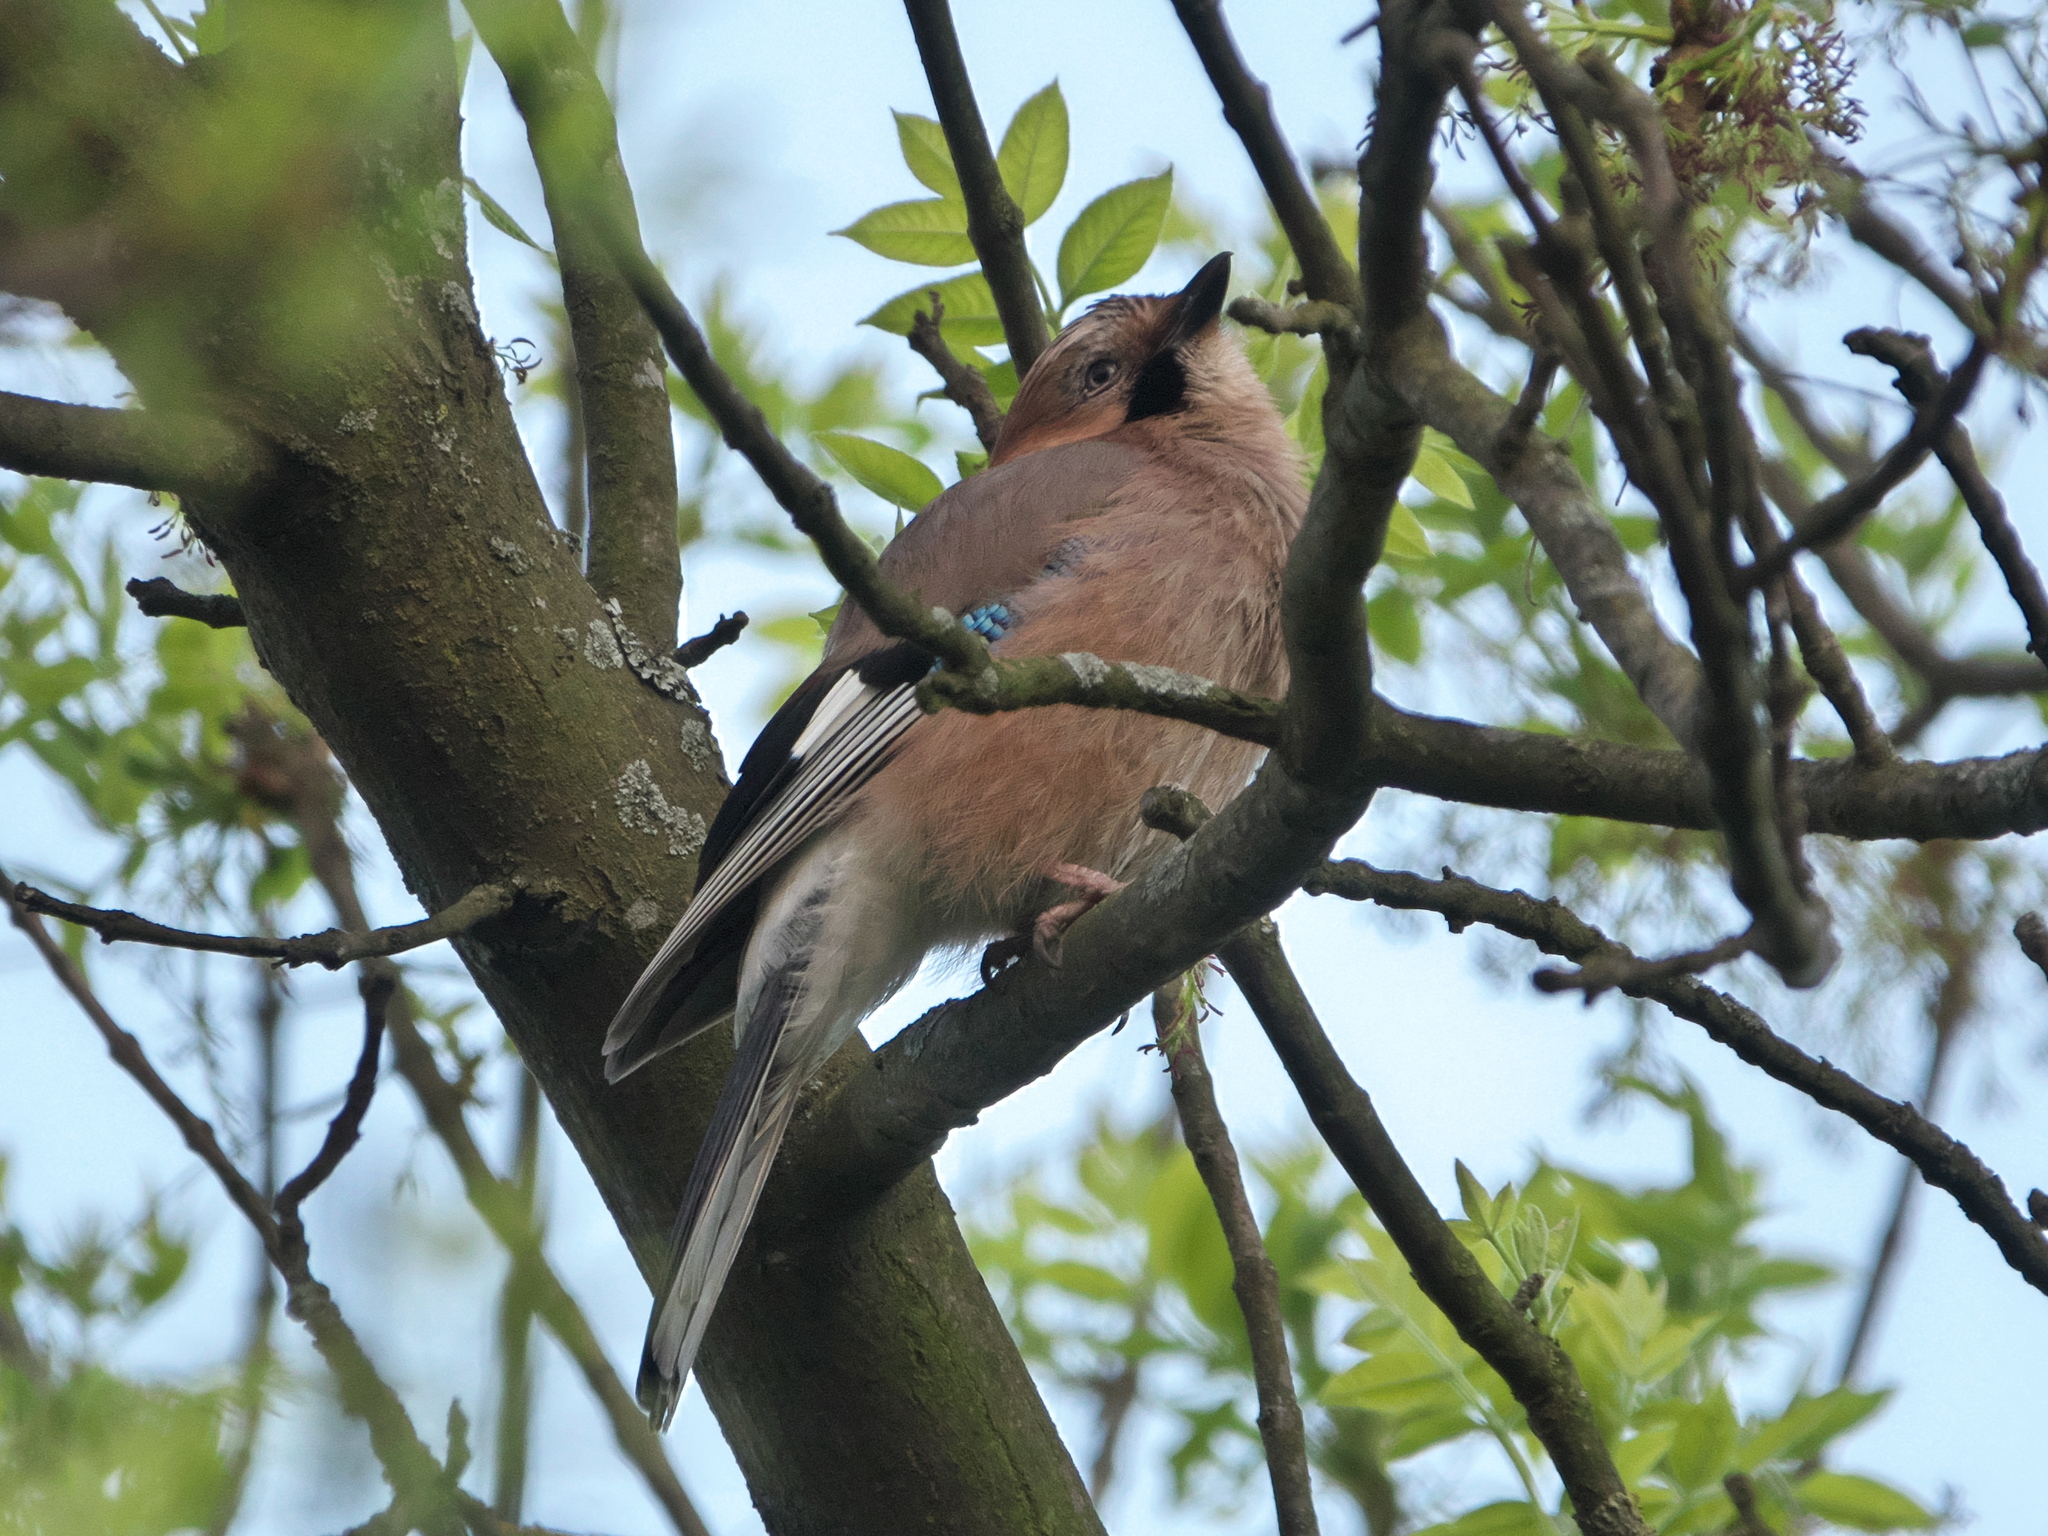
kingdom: Animalia
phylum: Chordata
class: Aves
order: Passeriformes
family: Corvidae
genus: Garrulus
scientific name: Garrulus glandarius
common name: Eurasian jay
